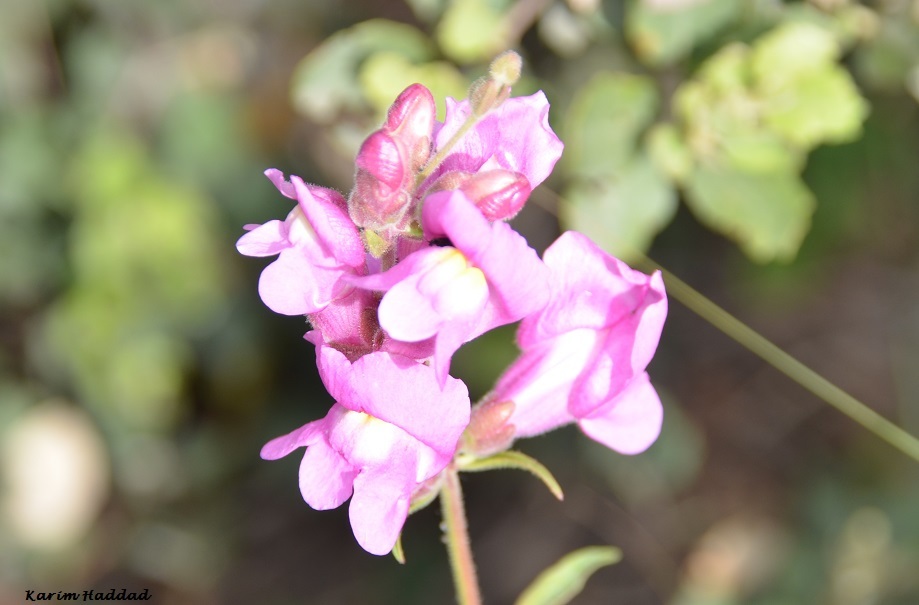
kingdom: Plantae
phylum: Tracheophyta
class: Magnoliopsida
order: Lamiales
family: Plantaginaceae
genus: Antirrhinum
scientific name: Antirrhinum tortuosum
